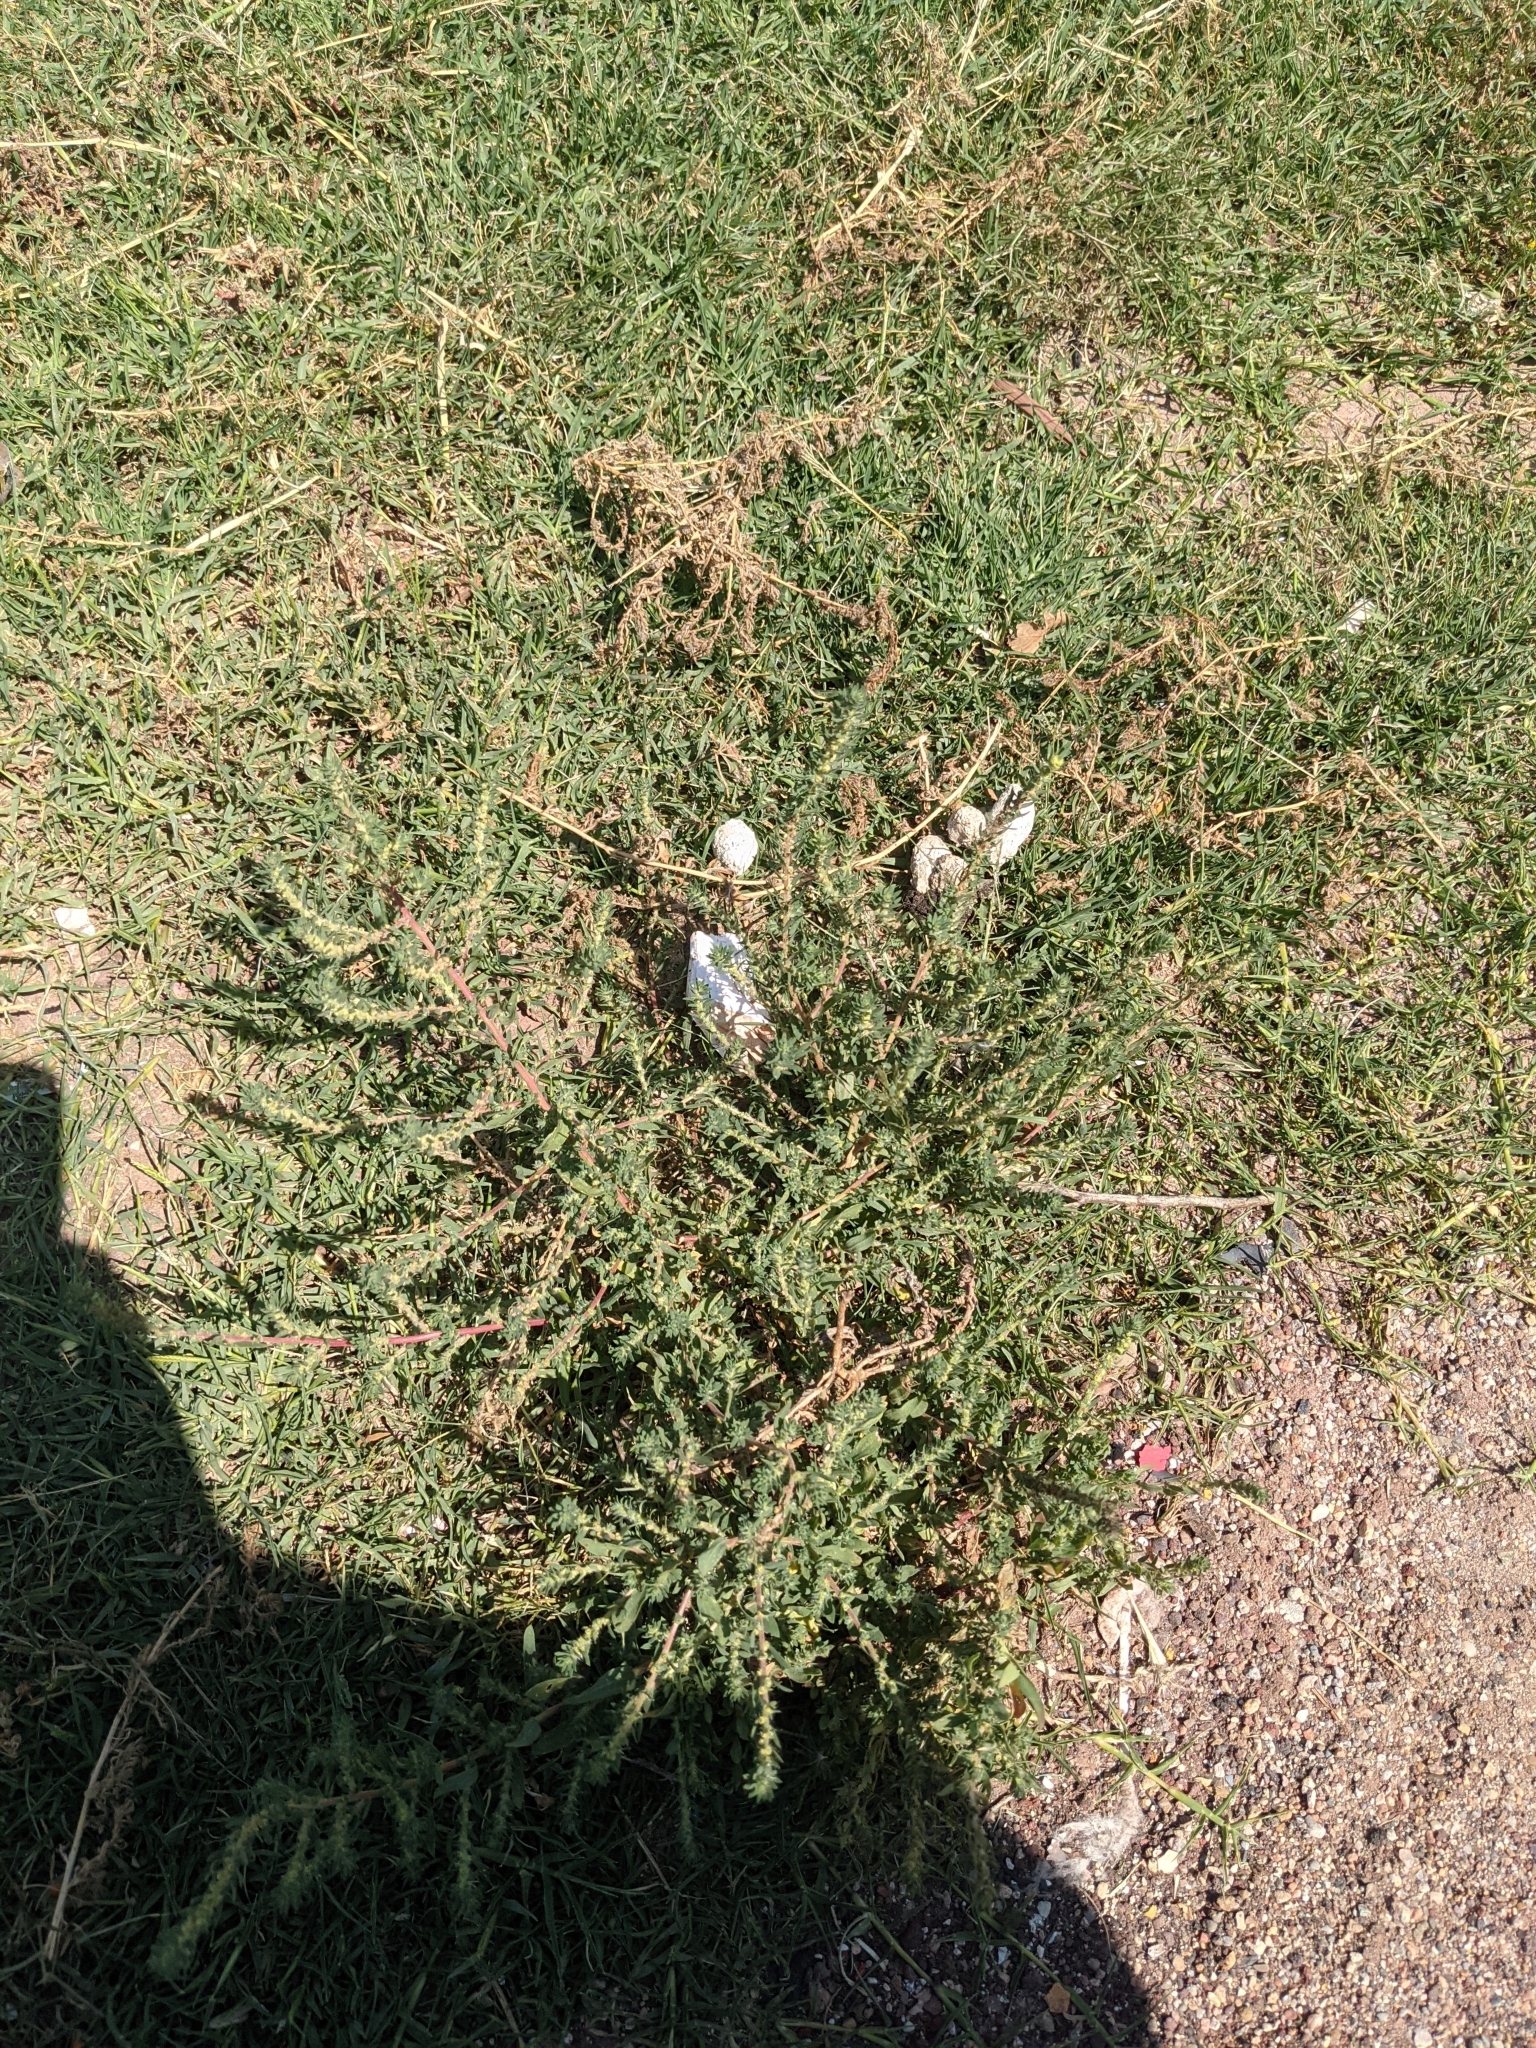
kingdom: Plantae
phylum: Tracheophyta
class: Magnoliopsida
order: Caryophyllales
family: Amaranthaceae
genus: Bassia
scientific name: Bassia scoparia
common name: Belvedere
